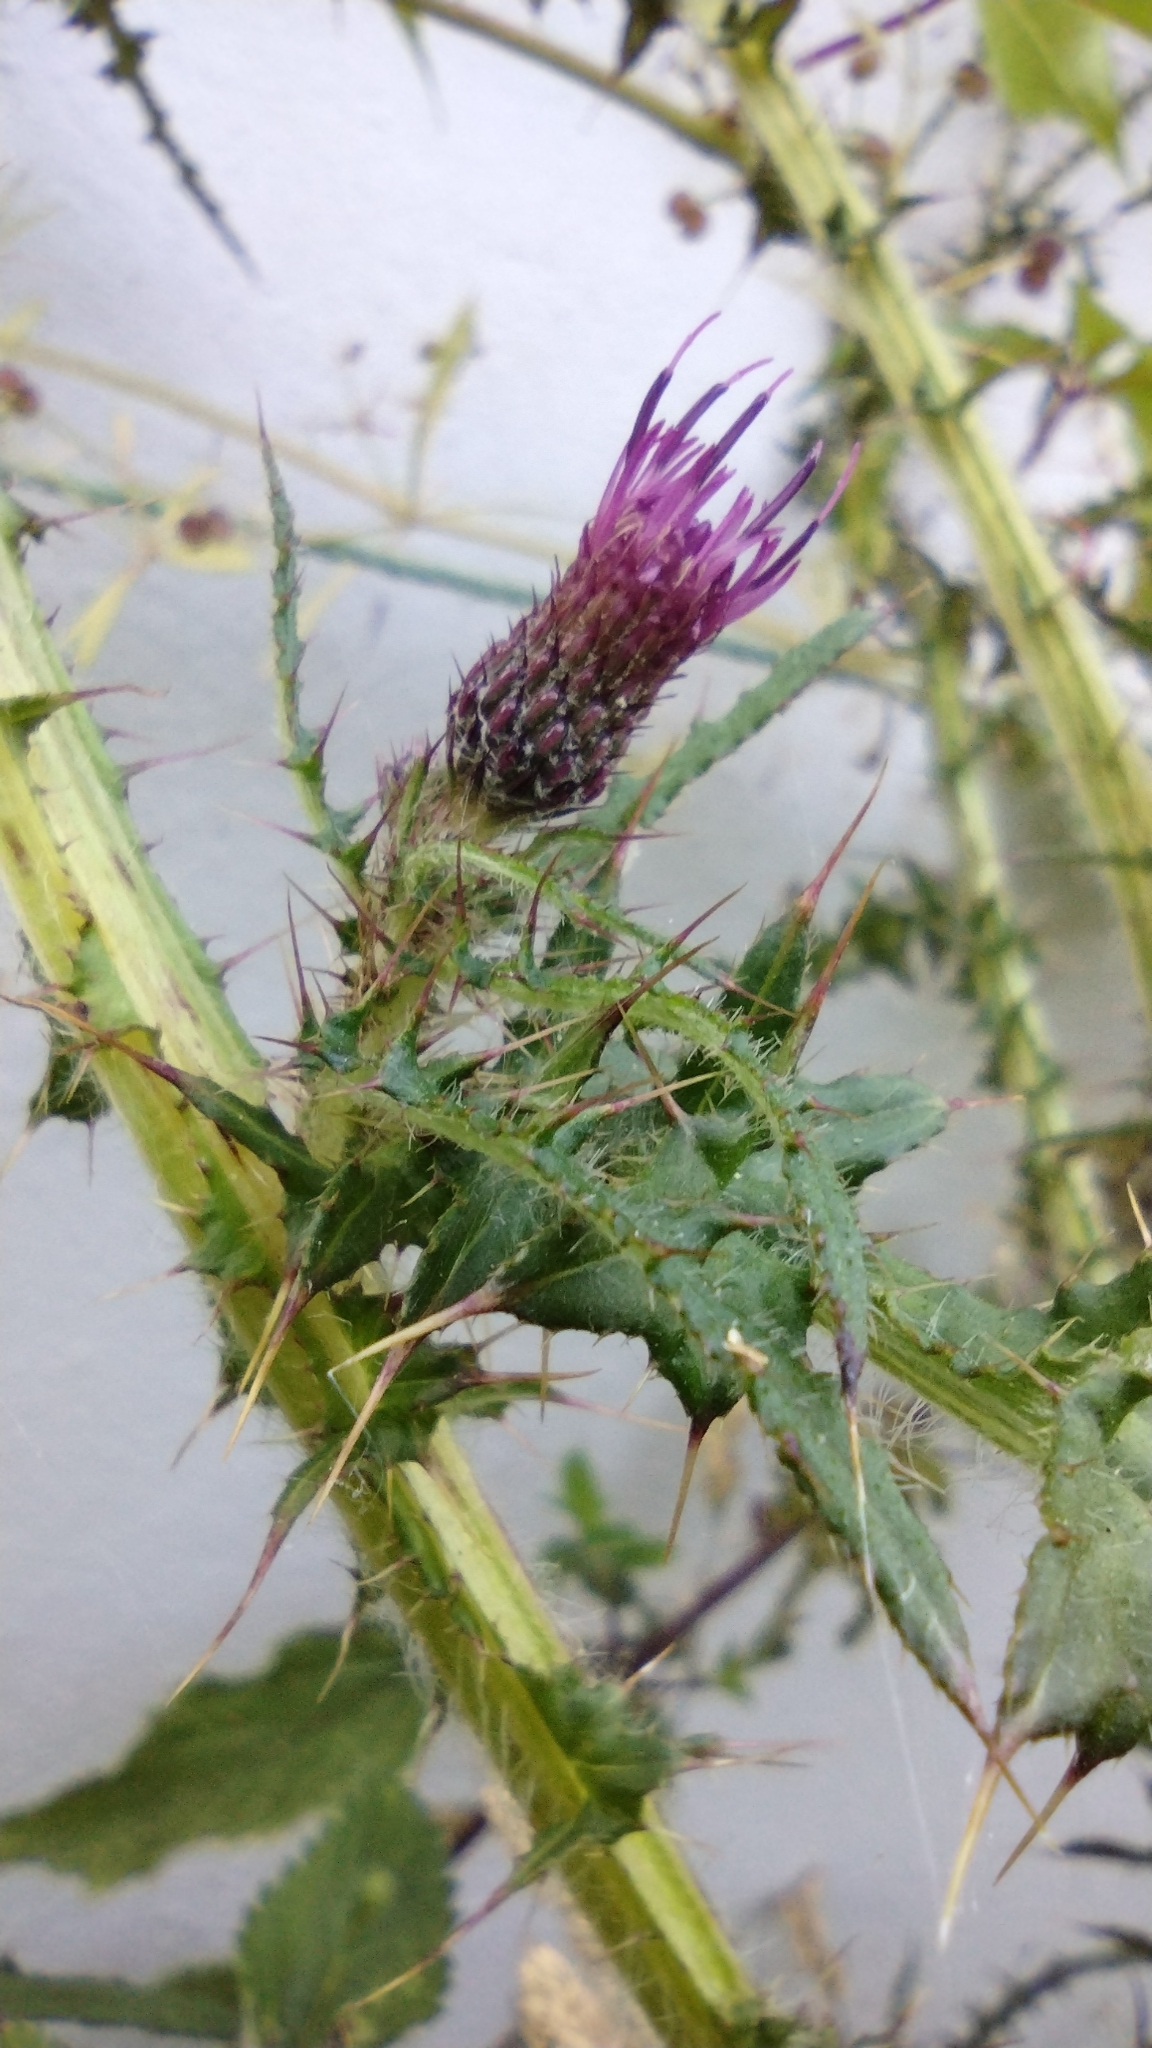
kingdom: Plantae
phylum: Tracheophyta
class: Magnoliopsida
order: Asterales
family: Asteraceae
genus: Cirsium
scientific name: Cirsium palustre
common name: Marsh thistle
